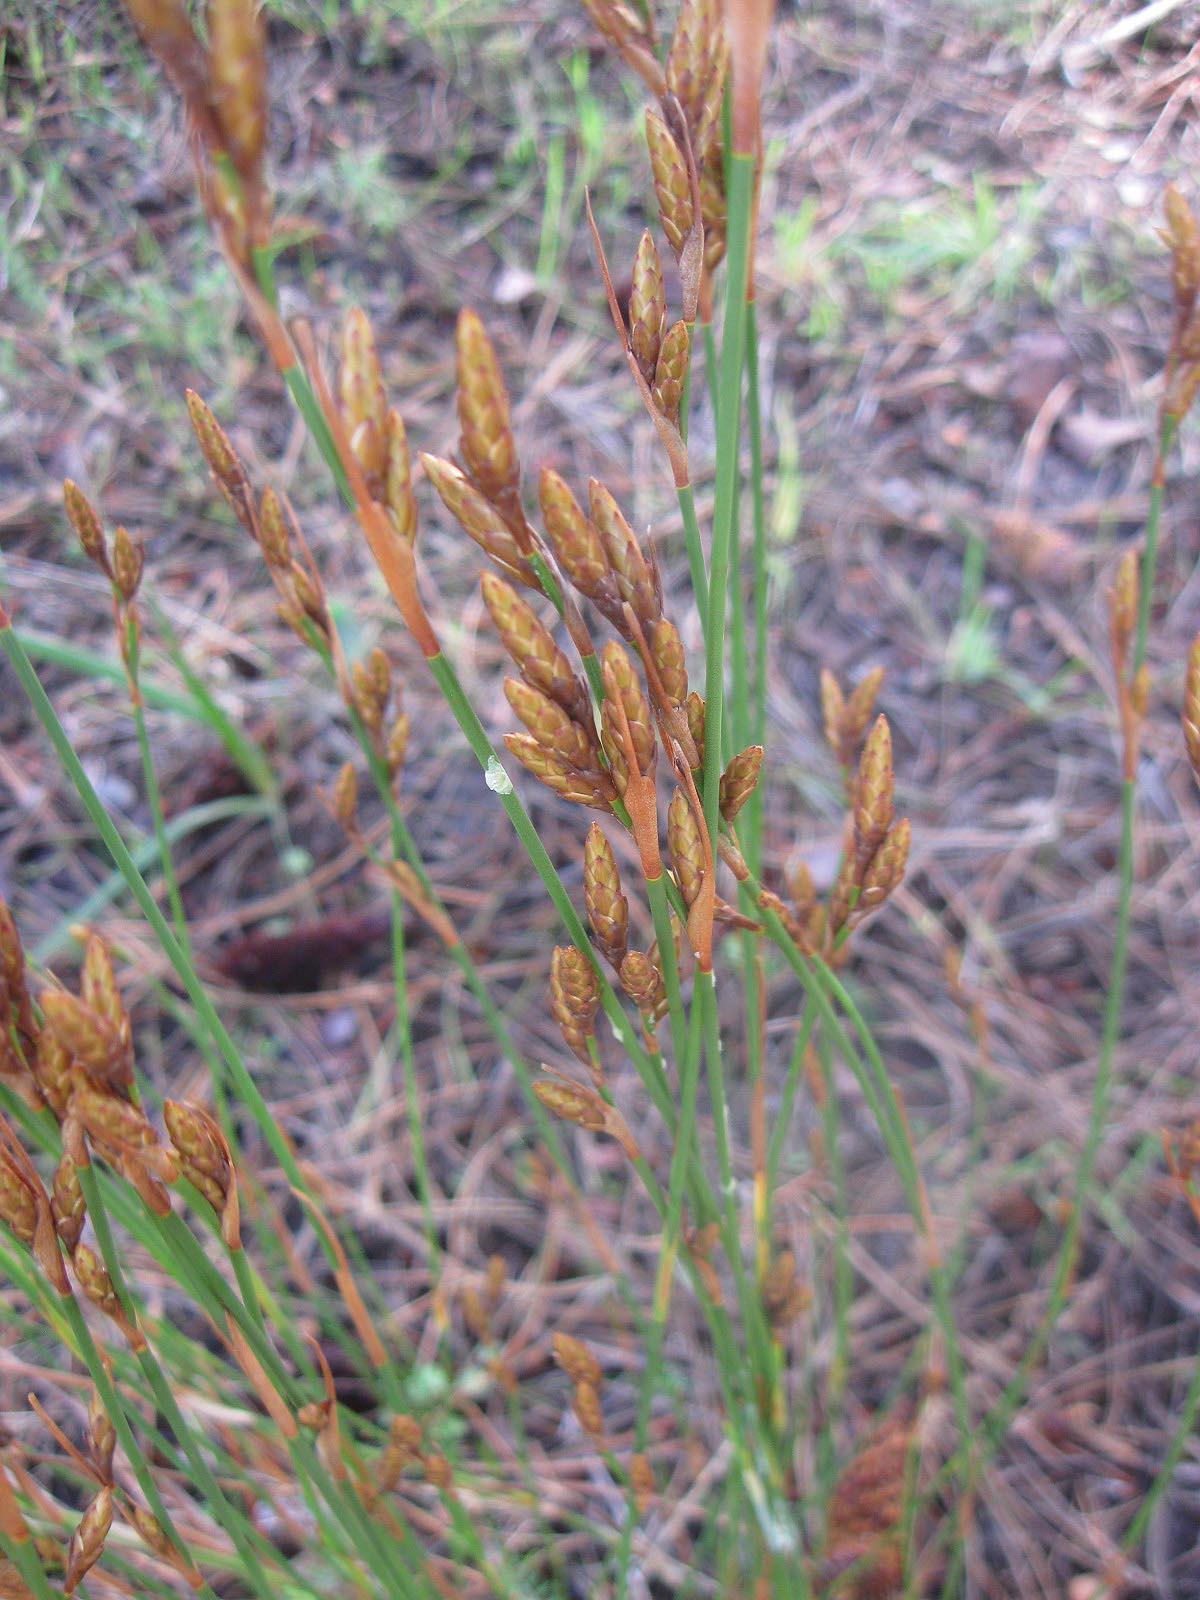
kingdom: Plantae
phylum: Tracheophyta
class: Liliopsida
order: Poales
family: Restionaceae
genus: Restio
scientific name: Restio quinquefarius
